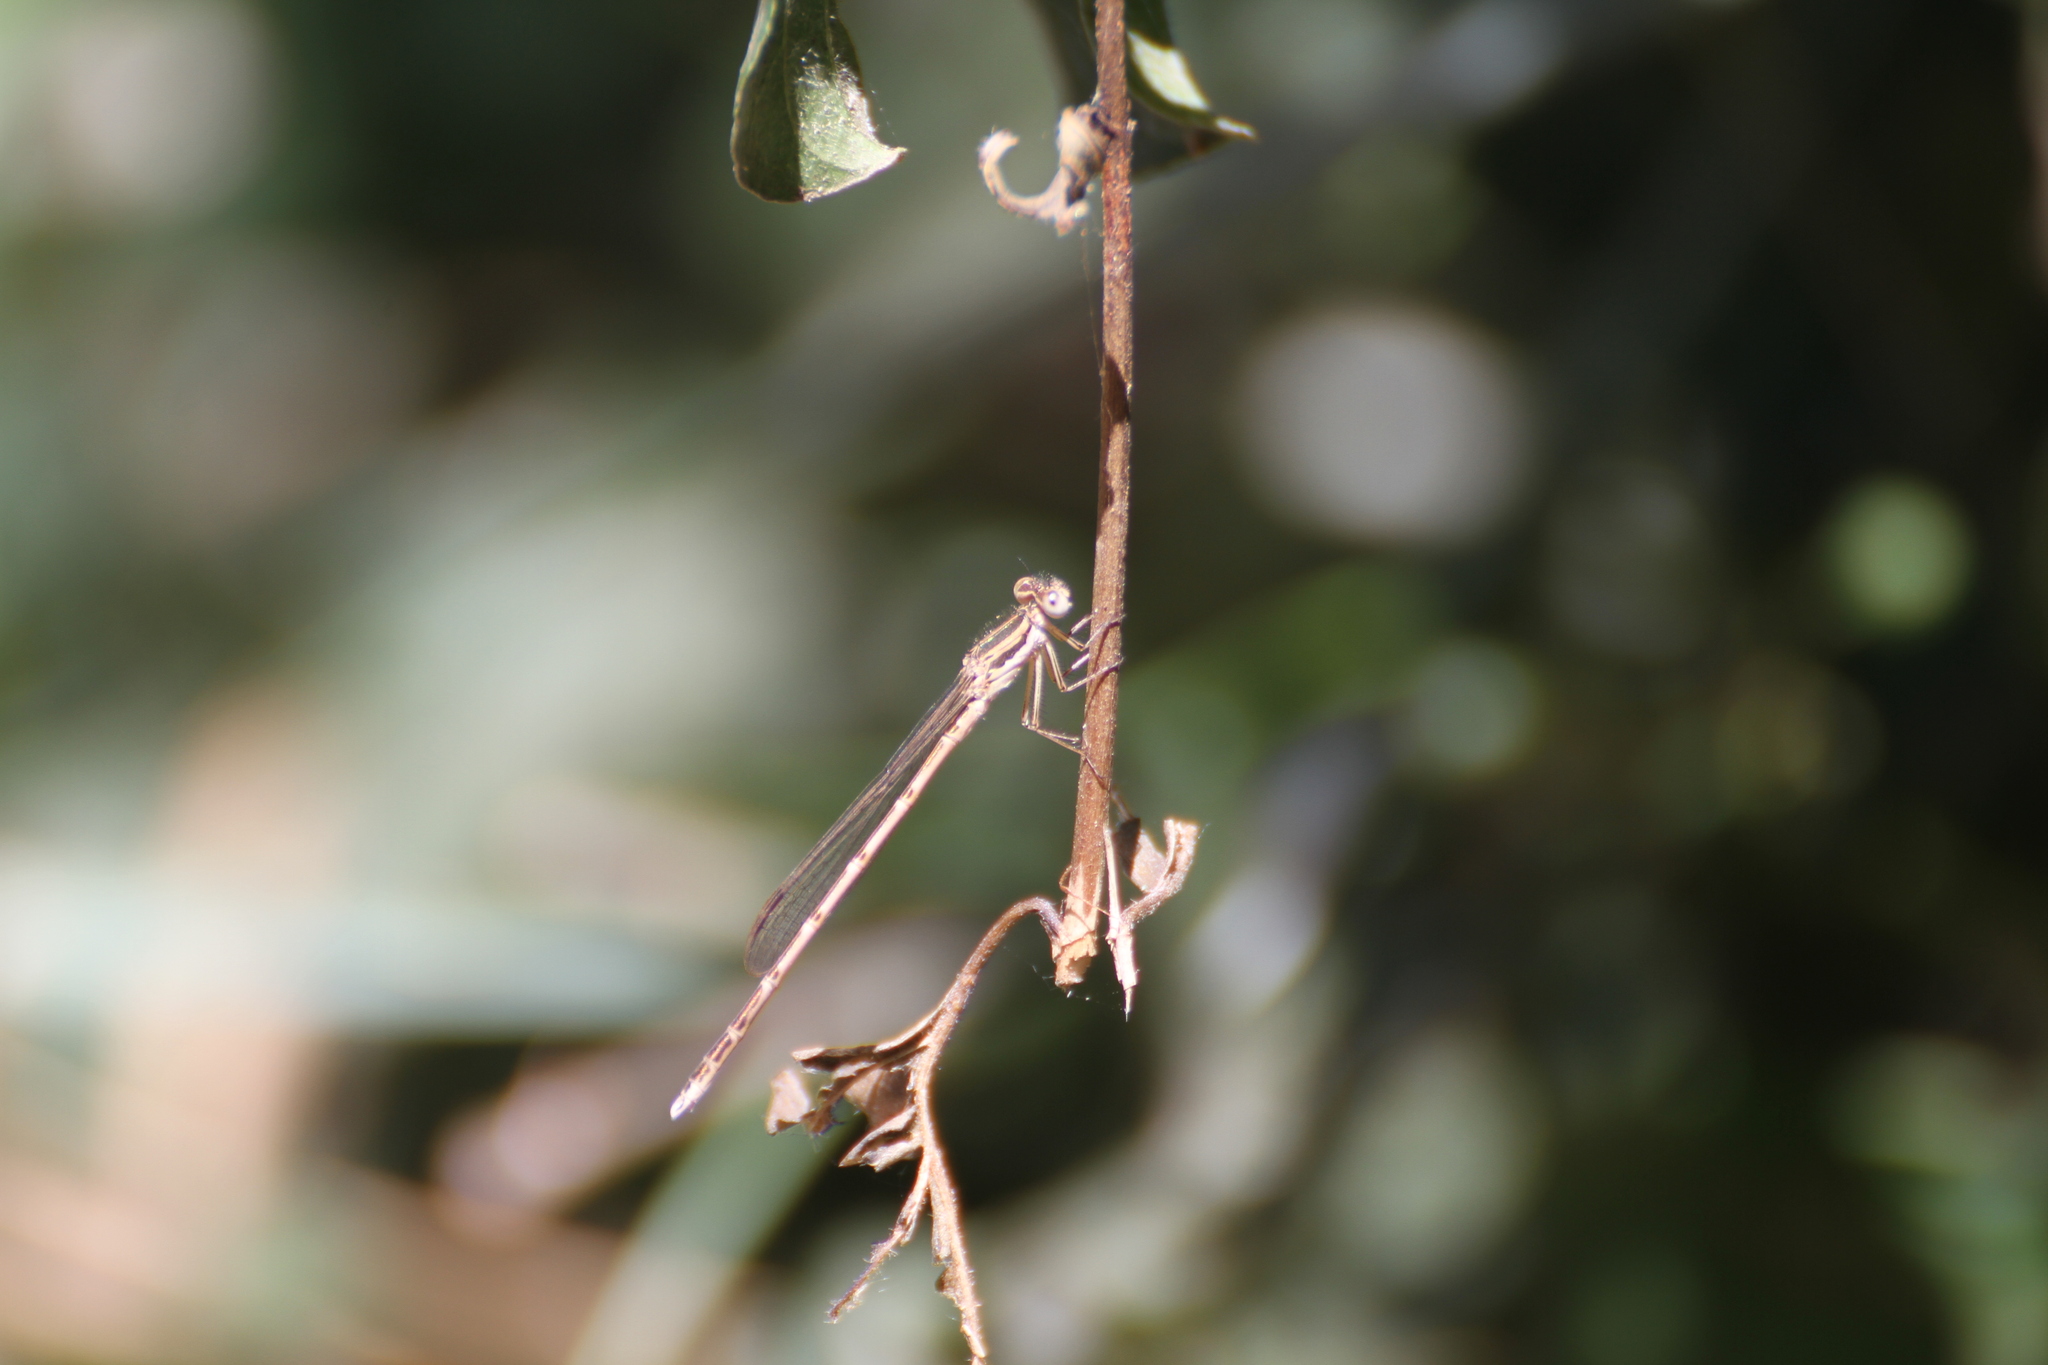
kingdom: Animalia
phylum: Arthropoda
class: Insecta
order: Odonata
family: Lestidae
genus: Sympecma
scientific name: Sympecma fusca
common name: Common winter damsel
